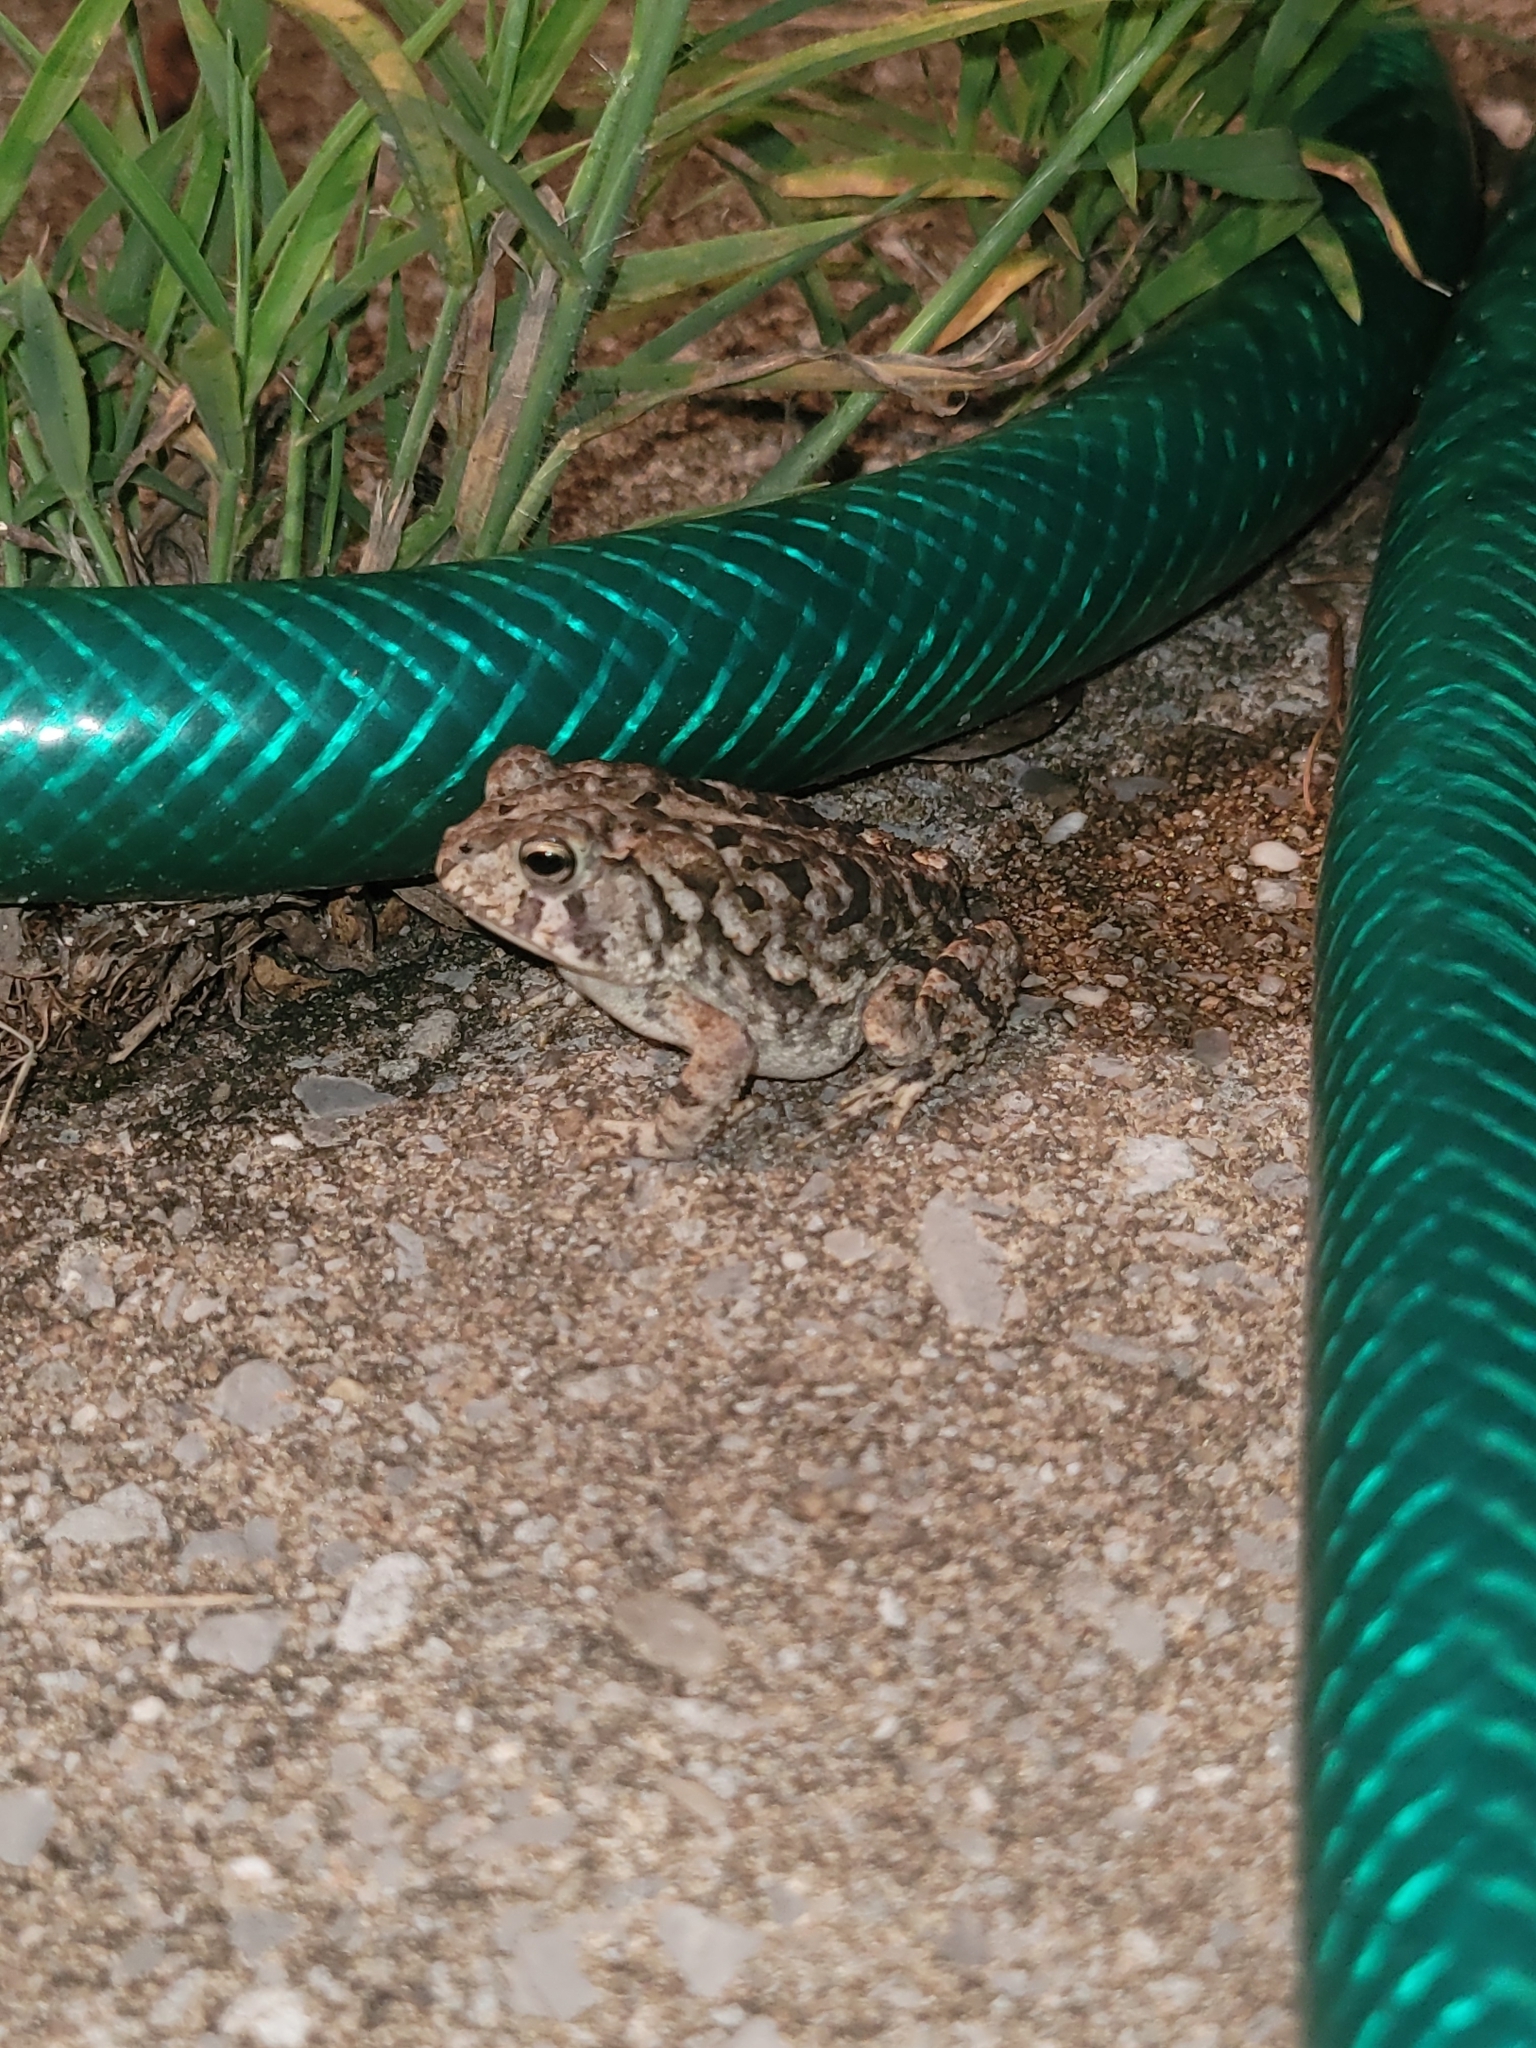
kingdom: Animalia
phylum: Chordata
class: Amphibia
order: Anura
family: Bufonidae
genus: Anaxyrus
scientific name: Anaxyrus terrestris
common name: Southern toad
